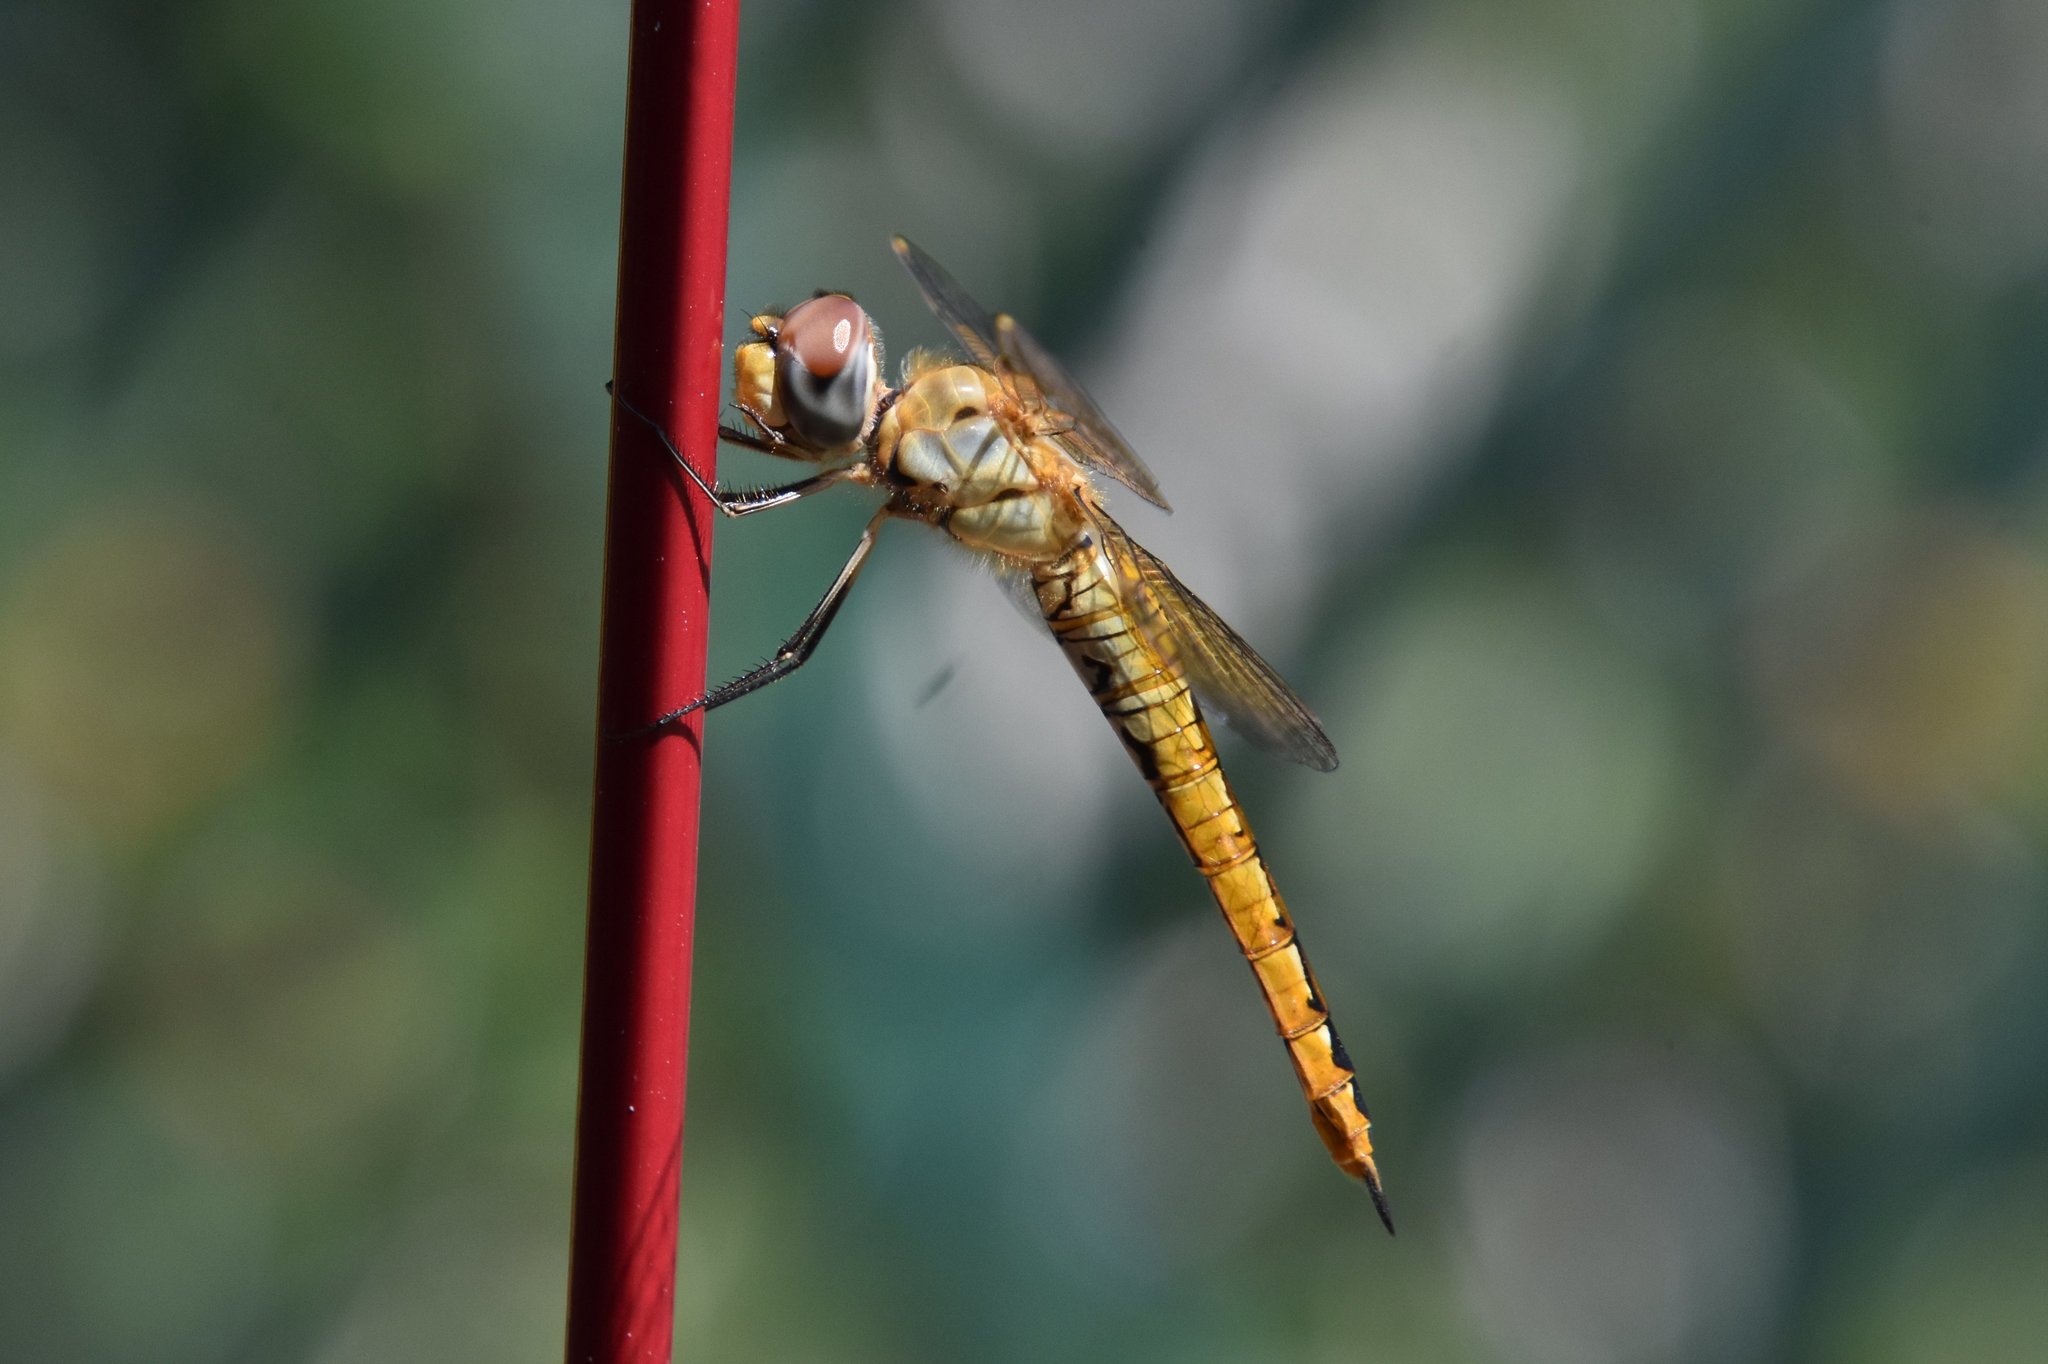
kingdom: Animalia
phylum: Arthropoda
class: Insecta
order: Odonata
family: Libellulidae
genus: Pantala
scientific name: Pantala flavescens
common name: Wandering glider
